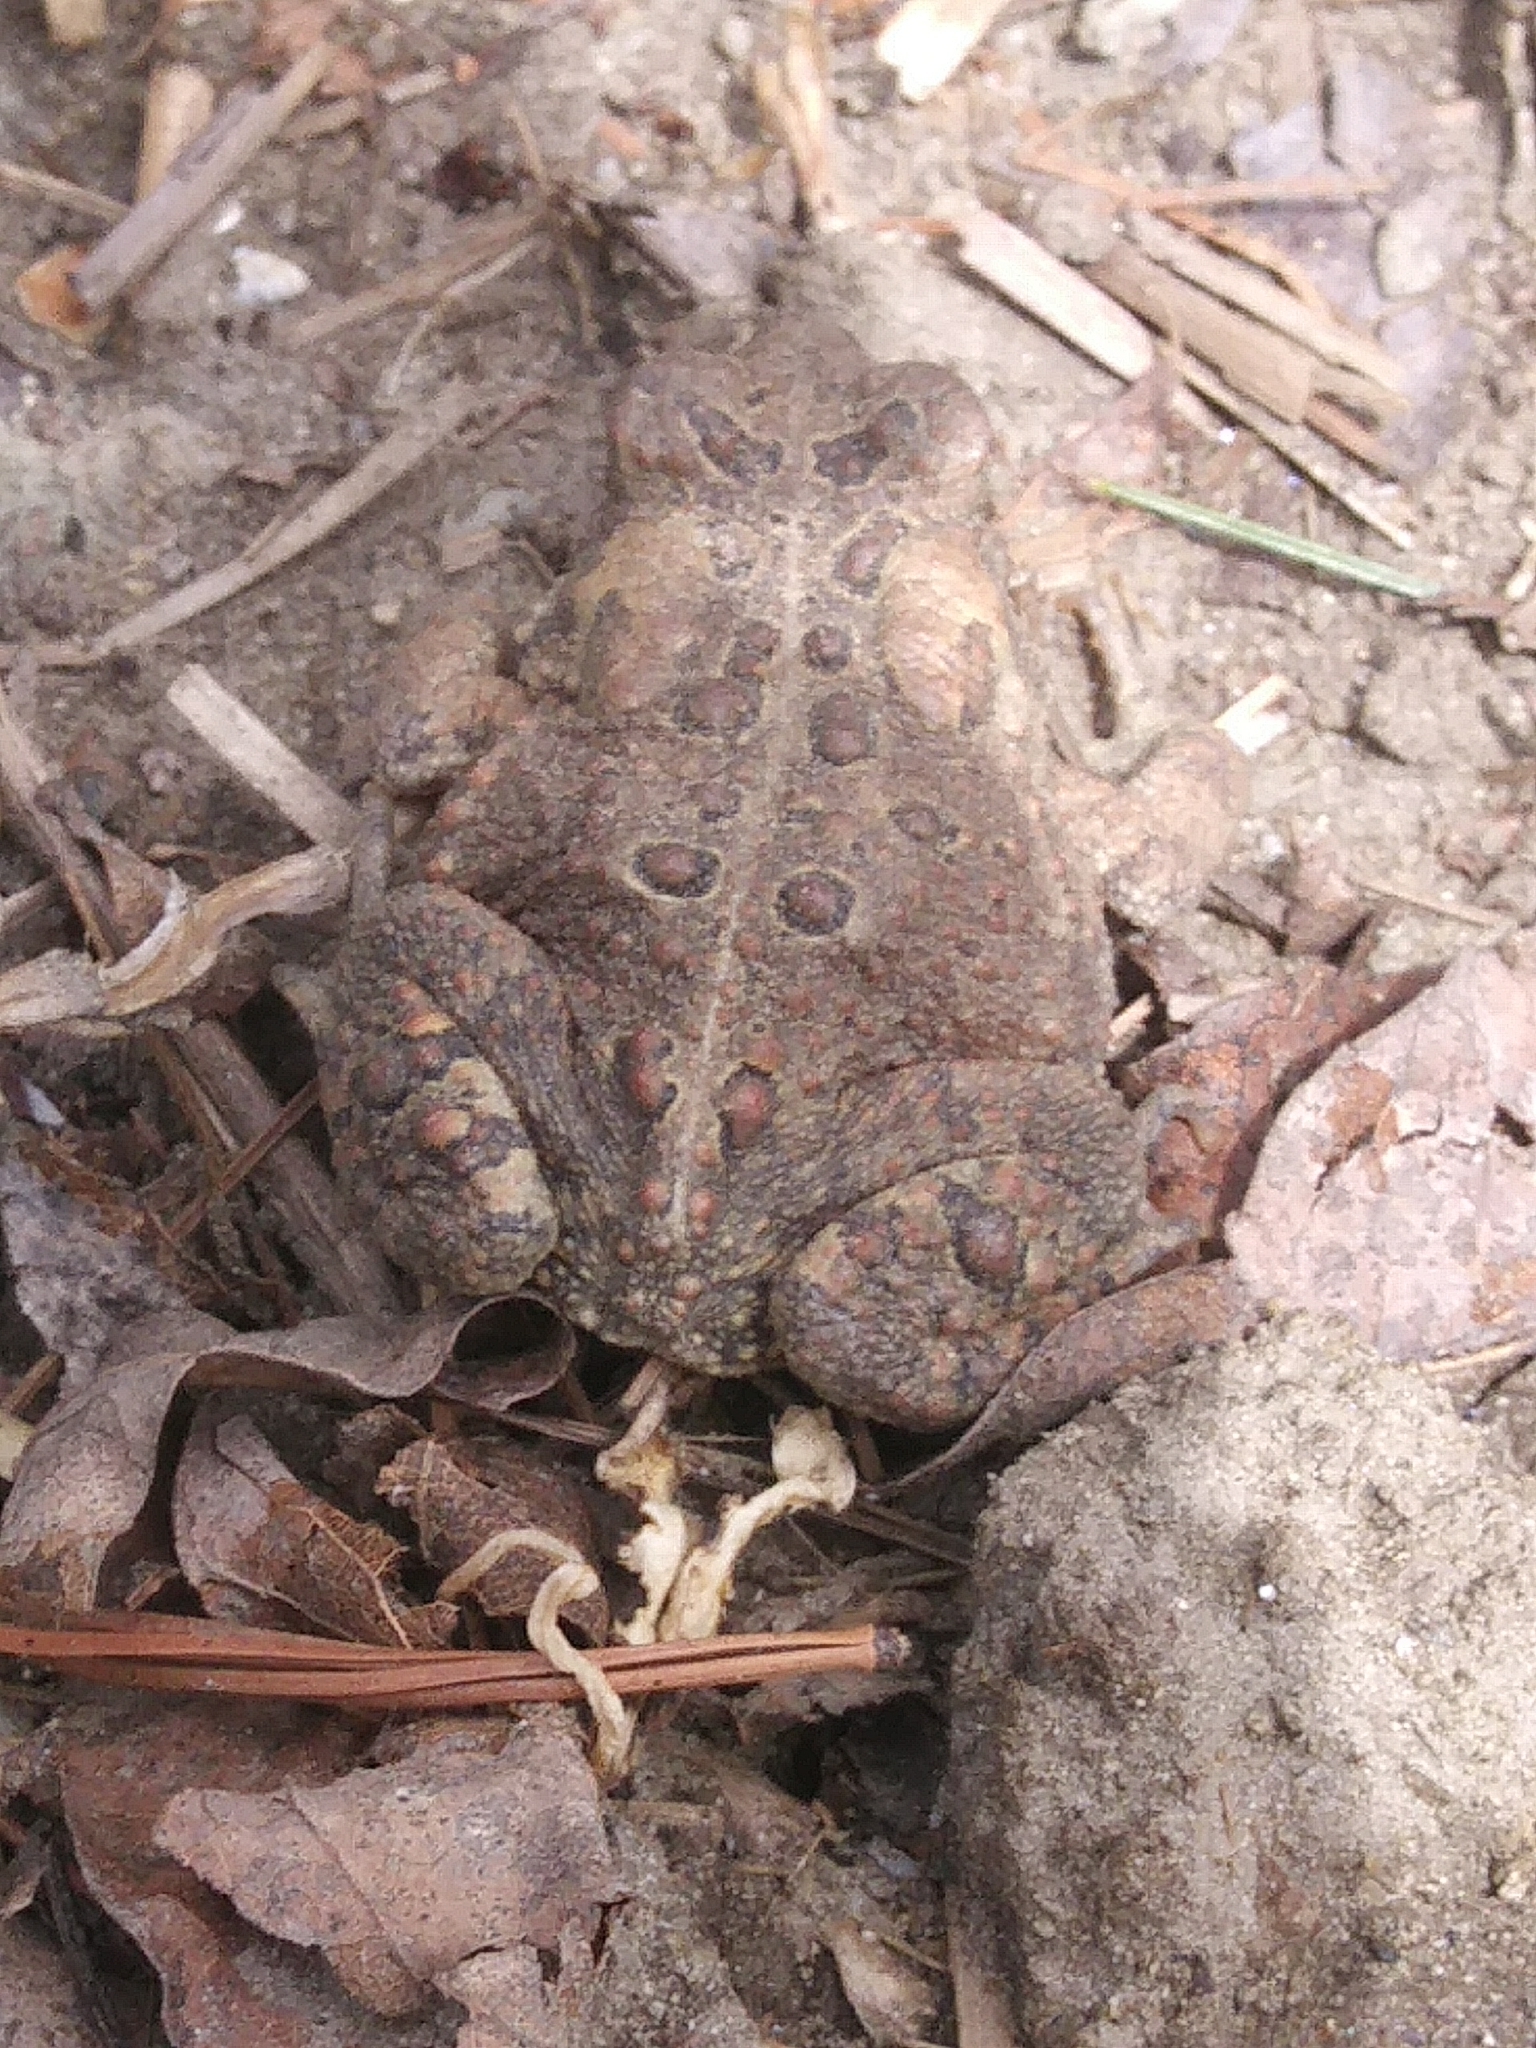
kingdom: Animalia
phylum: Chordata
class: Amphibia
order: Anura
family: Bufonidae
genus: Anaxyrus
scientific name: Anaxyrus americanus
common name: American toad
